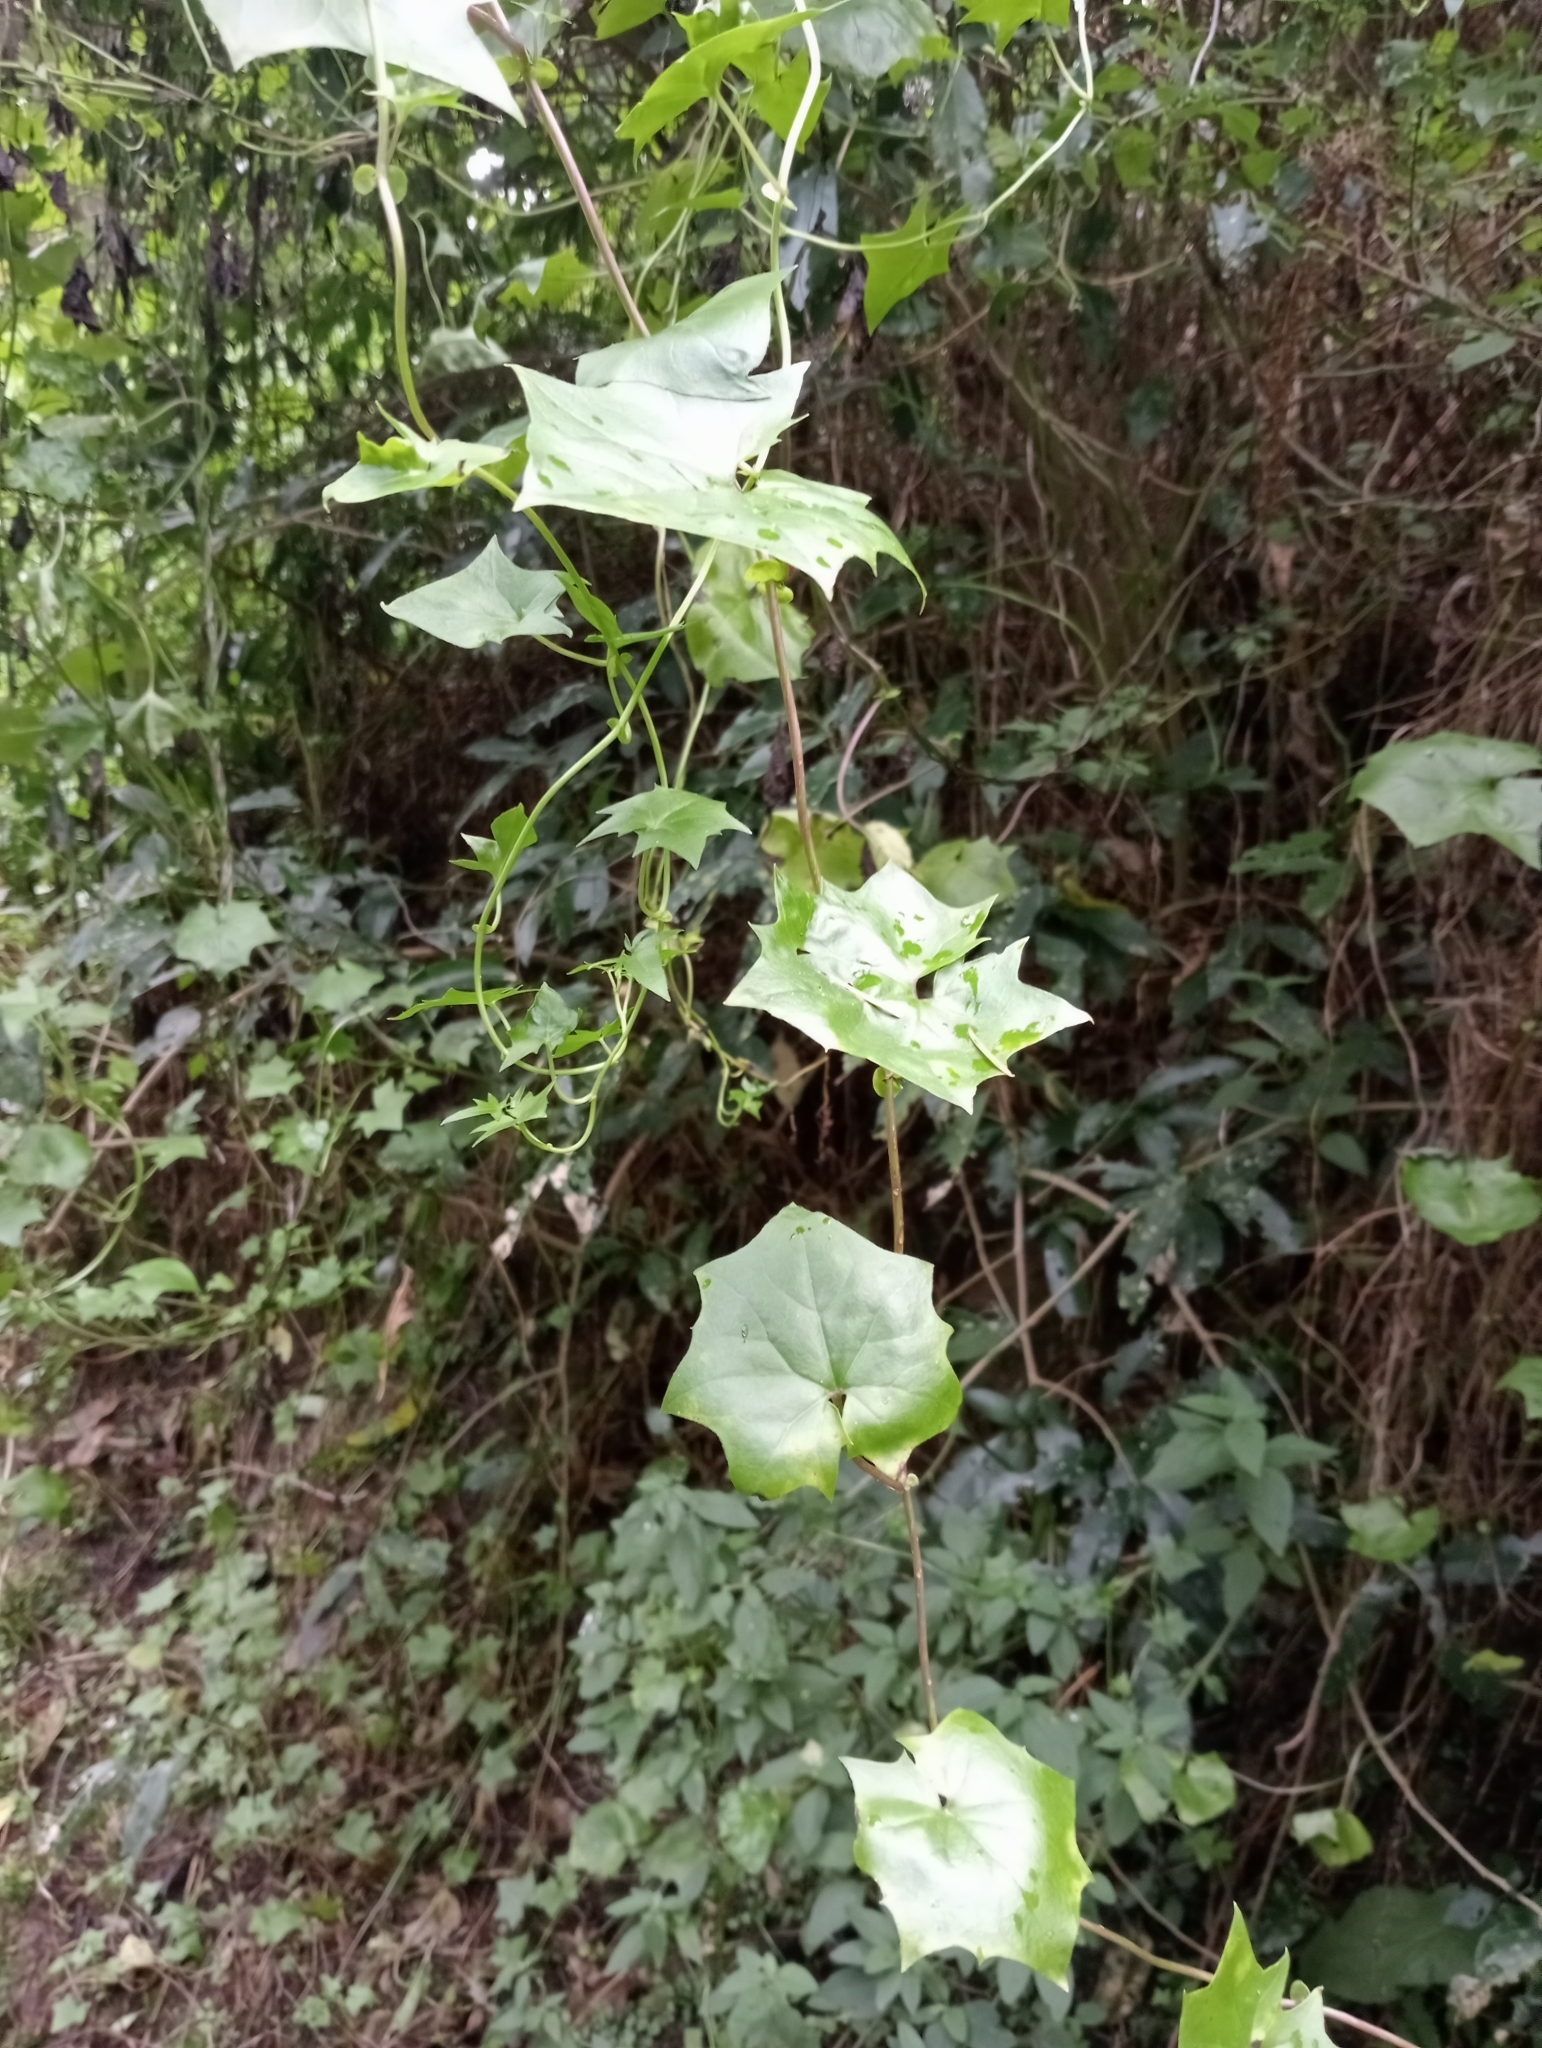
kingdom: Plantae
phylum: Tracheophyta
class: Magnoliopsida
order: Asterales
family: Asteraceae
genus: Delairea
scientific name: Delairea odorata
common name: Cape-ivy
